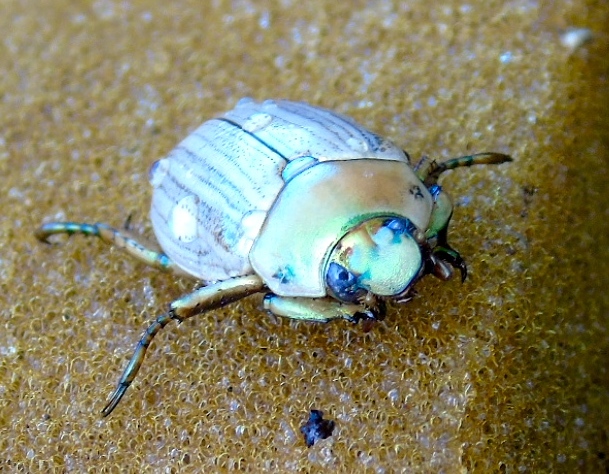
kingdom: Animalia
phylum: Arthropoda
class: Insecta
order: Coleoptera
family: Scarabaeidae
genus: Pelidnota
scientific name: Pelidnota virescens
